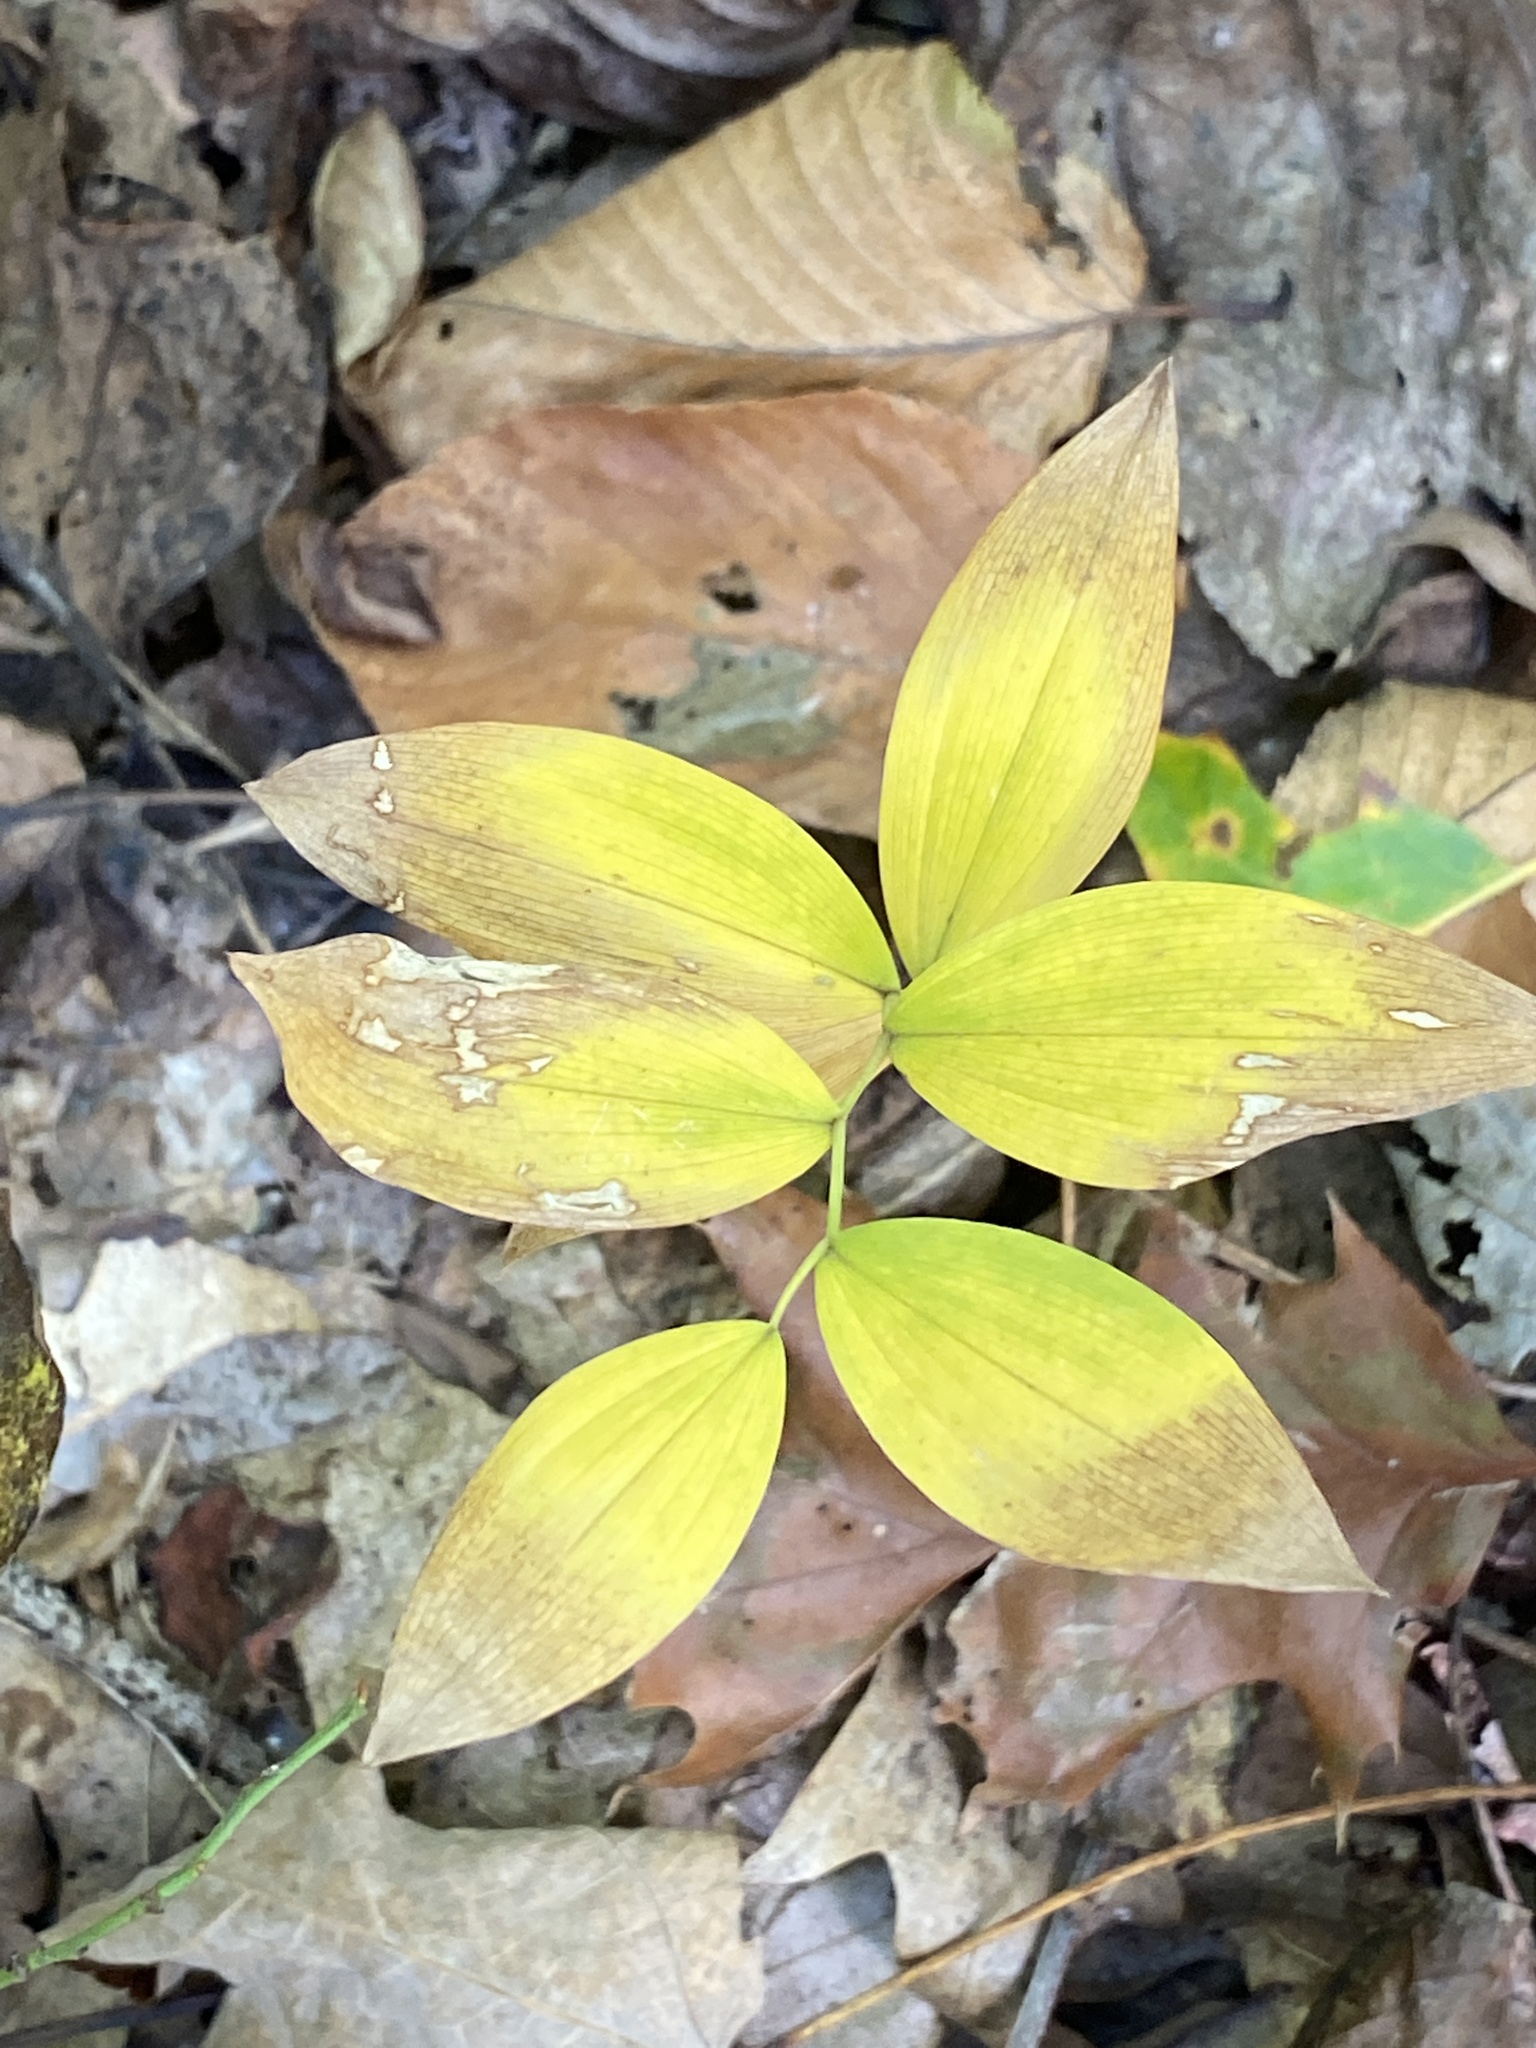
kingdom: Plantae
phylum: Tracheophyta
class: Liliopsida
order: Liliales
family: Colchicaceae
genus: Uvularia
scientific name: Uvularia sessilifolia
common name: Straw-lily
